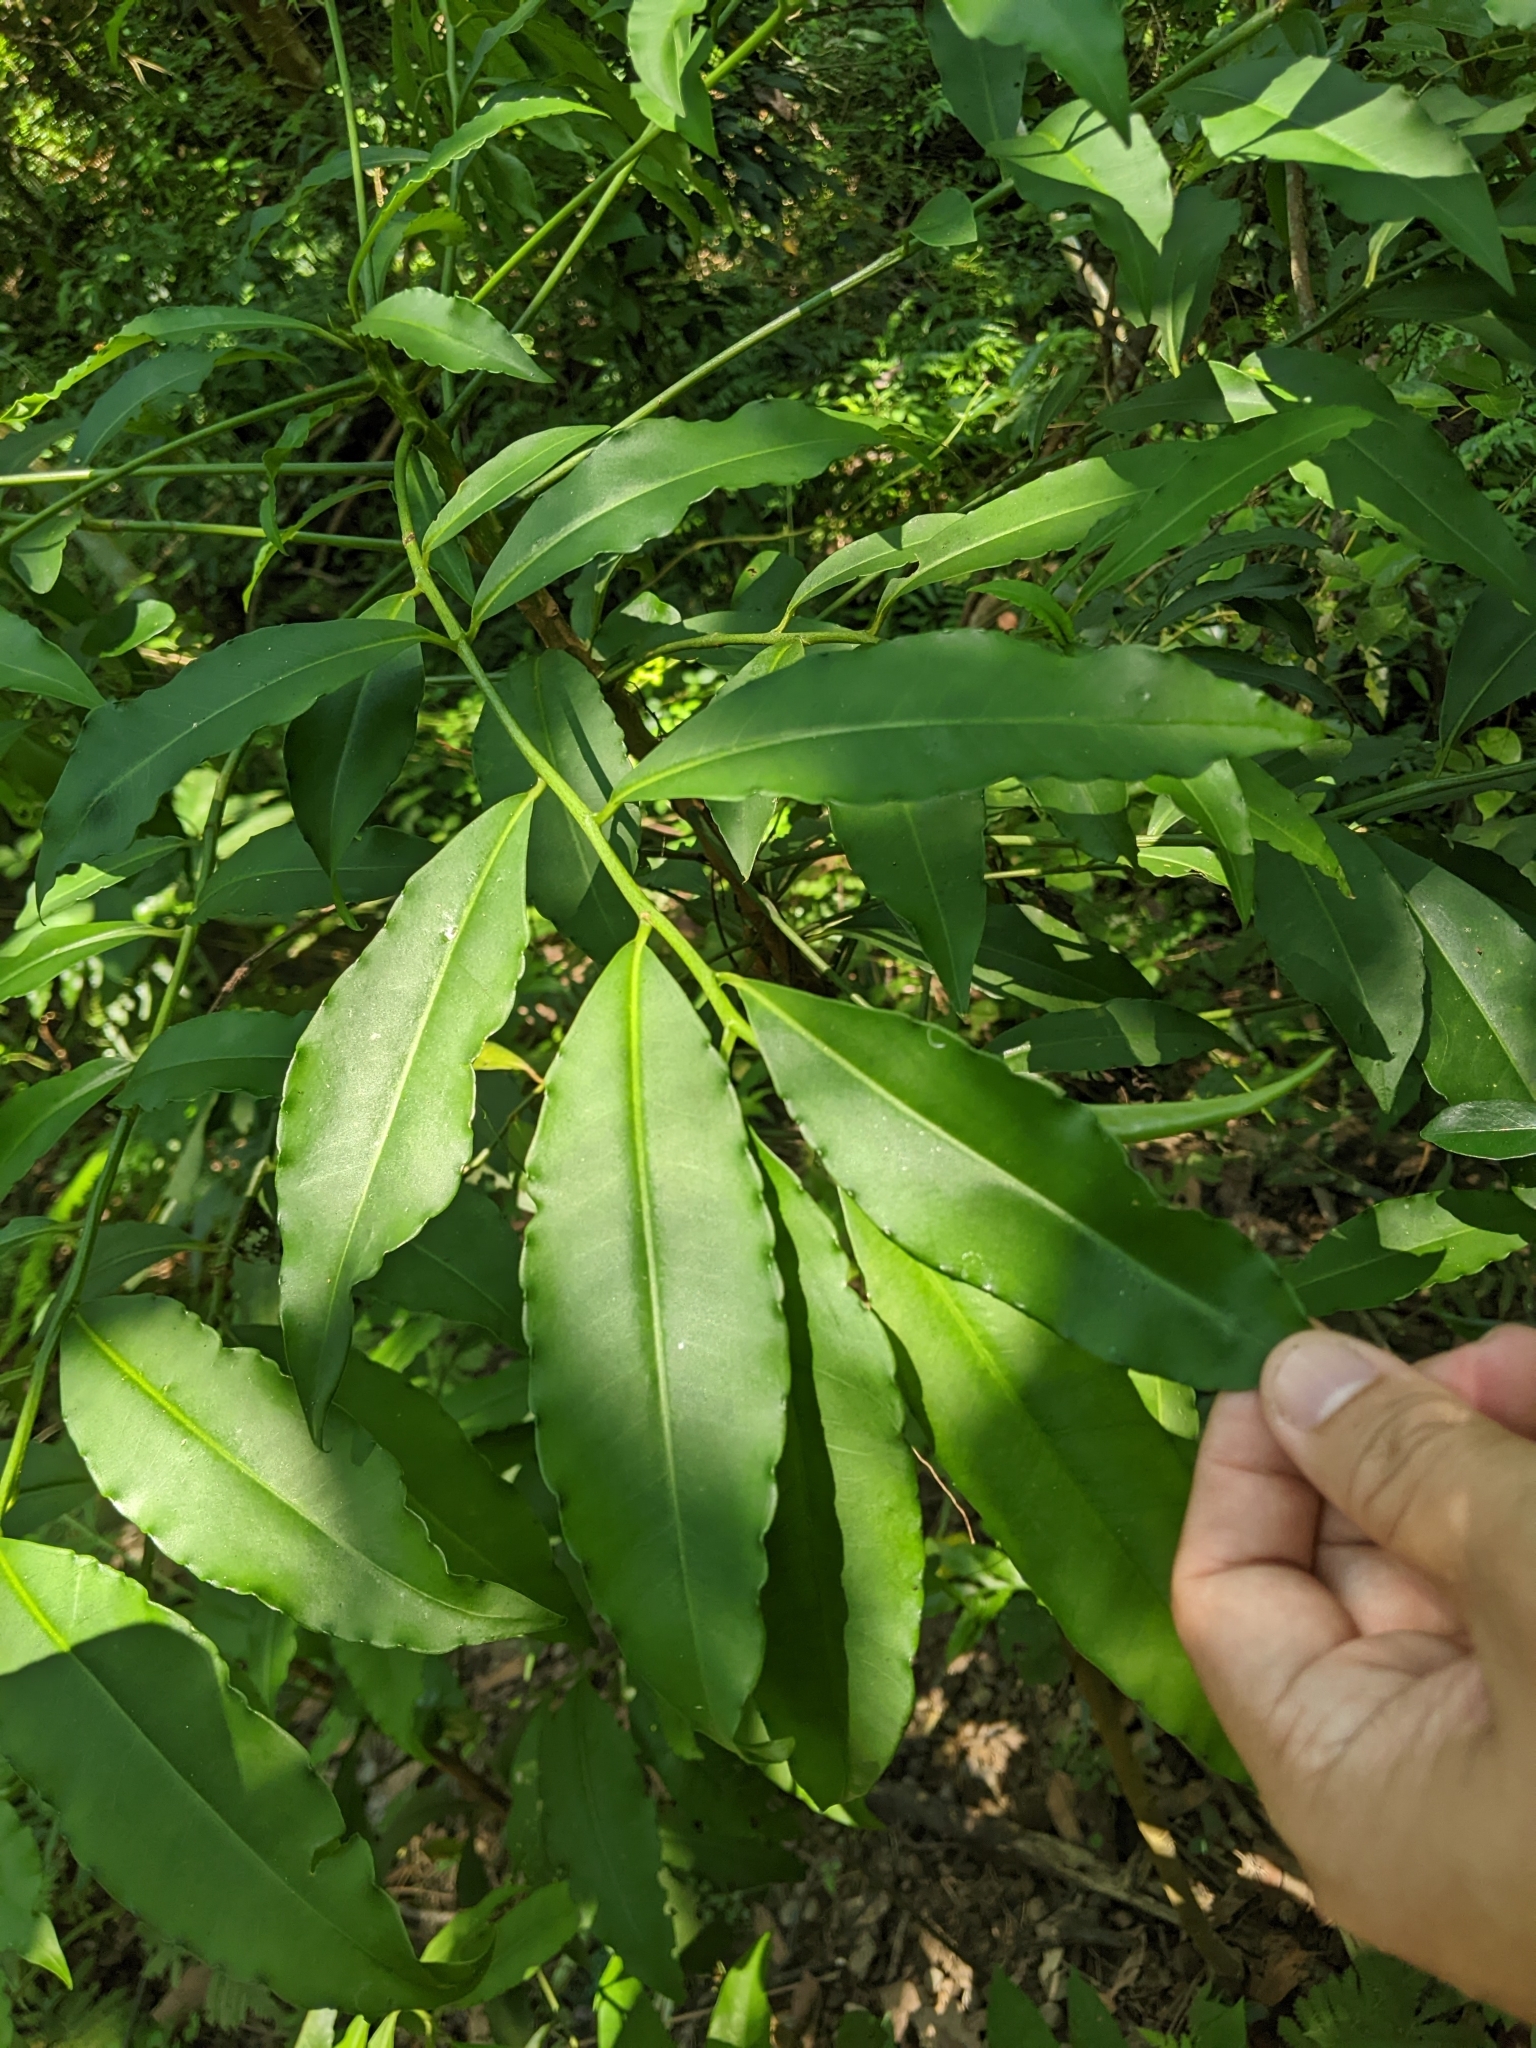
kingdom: Plantae
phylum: Tracheophyta
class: Magnoliopsida
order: Ericales
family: Primulaceae
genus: Ardisia
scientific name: Ardisia polysticta
